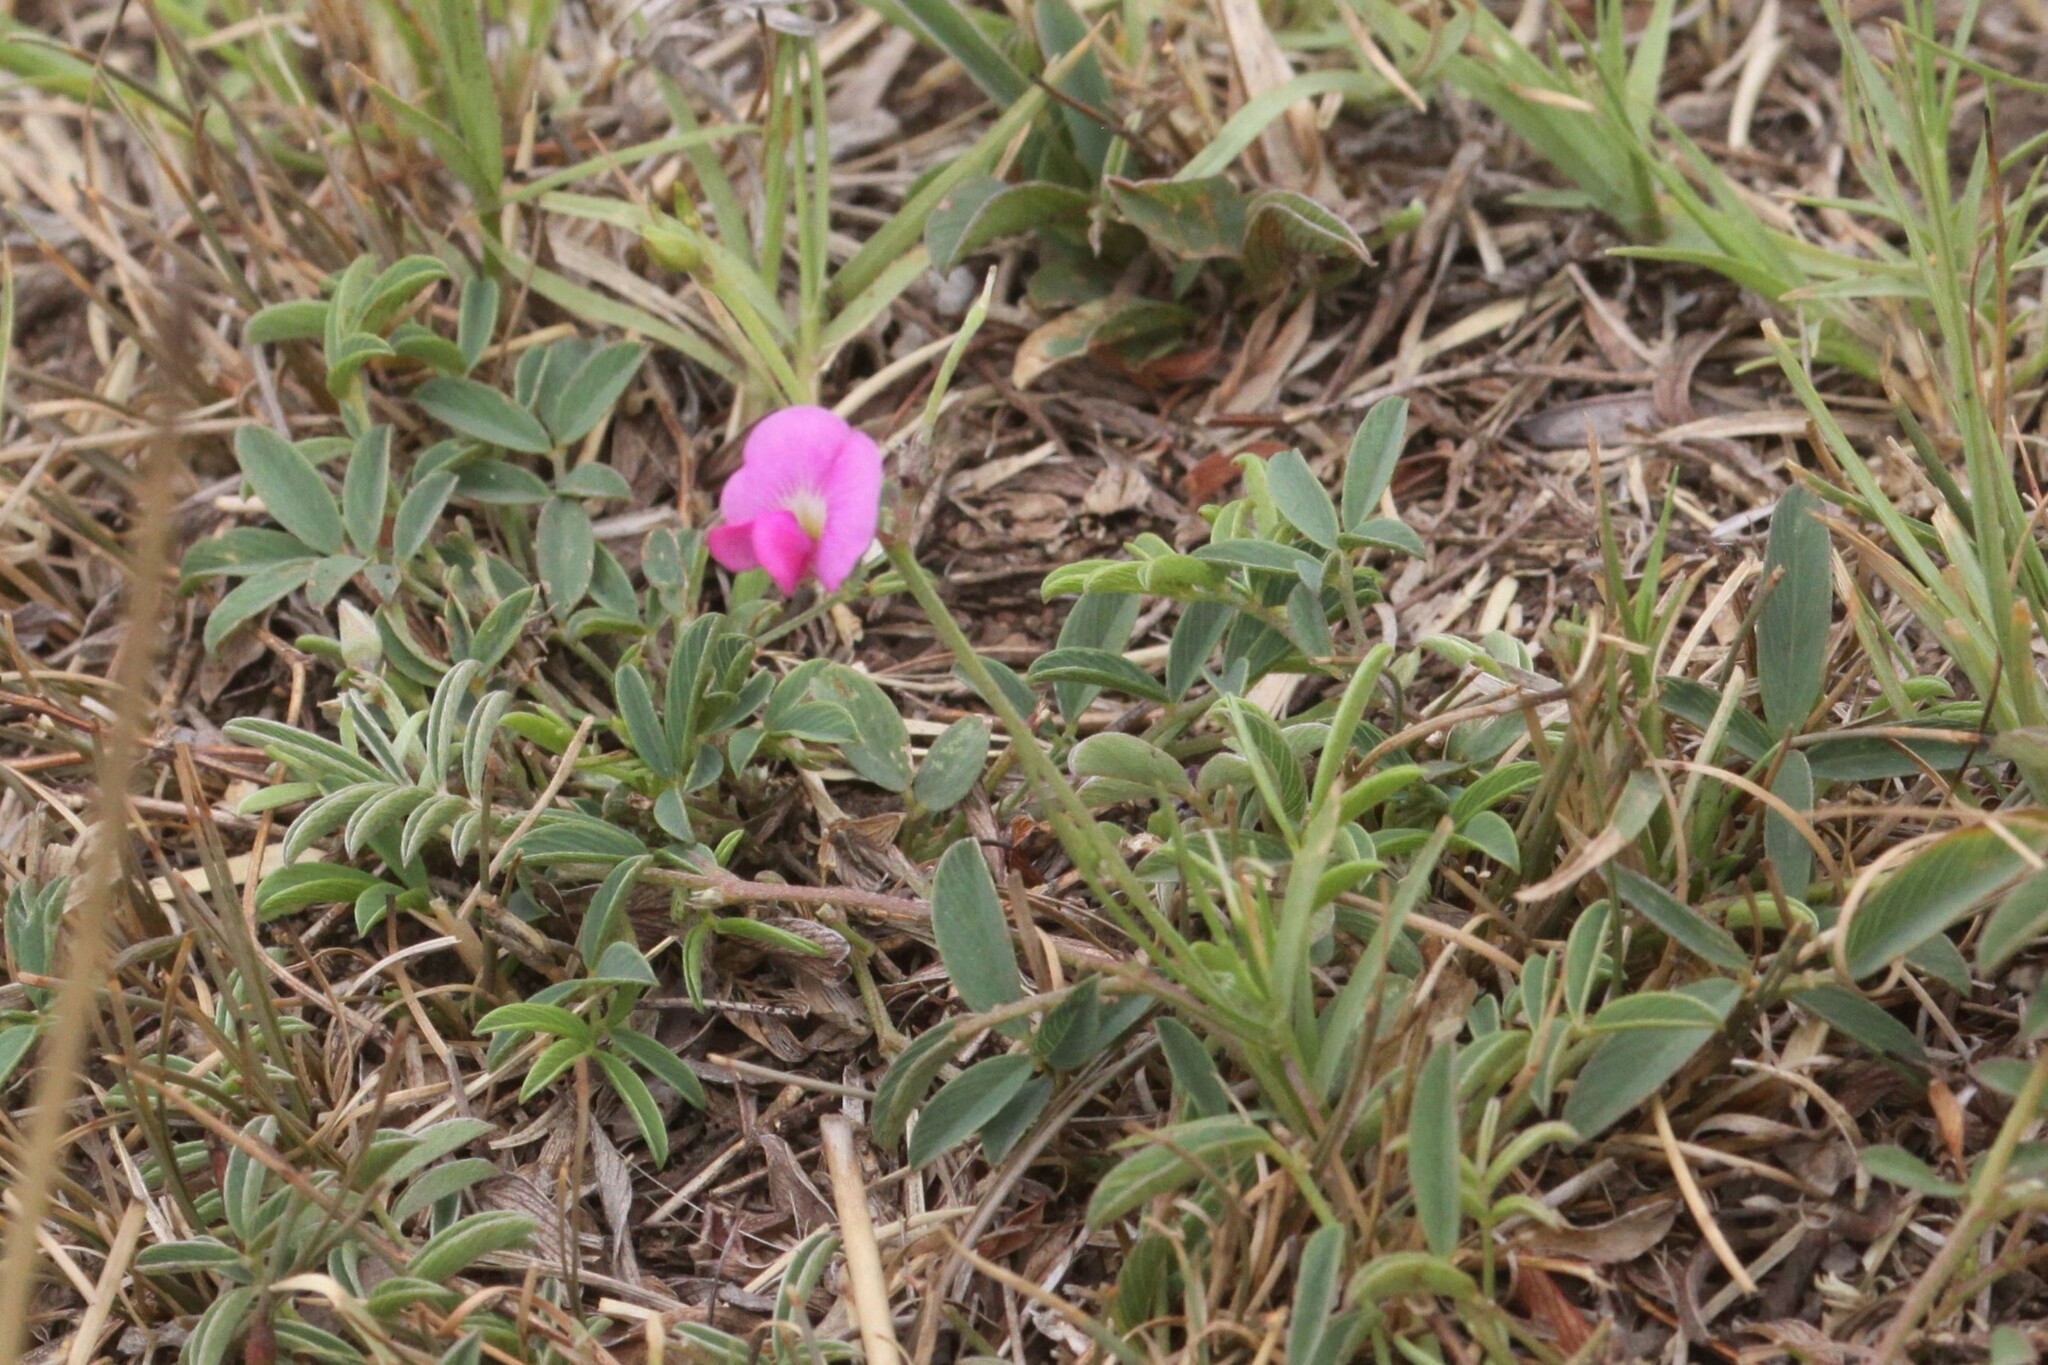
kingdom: Plantae
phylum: Tracheophyta
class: Magnoliopsida
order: Fabales
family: Fabaceae
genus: Tephrosia
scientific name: Tephrosia capensis
